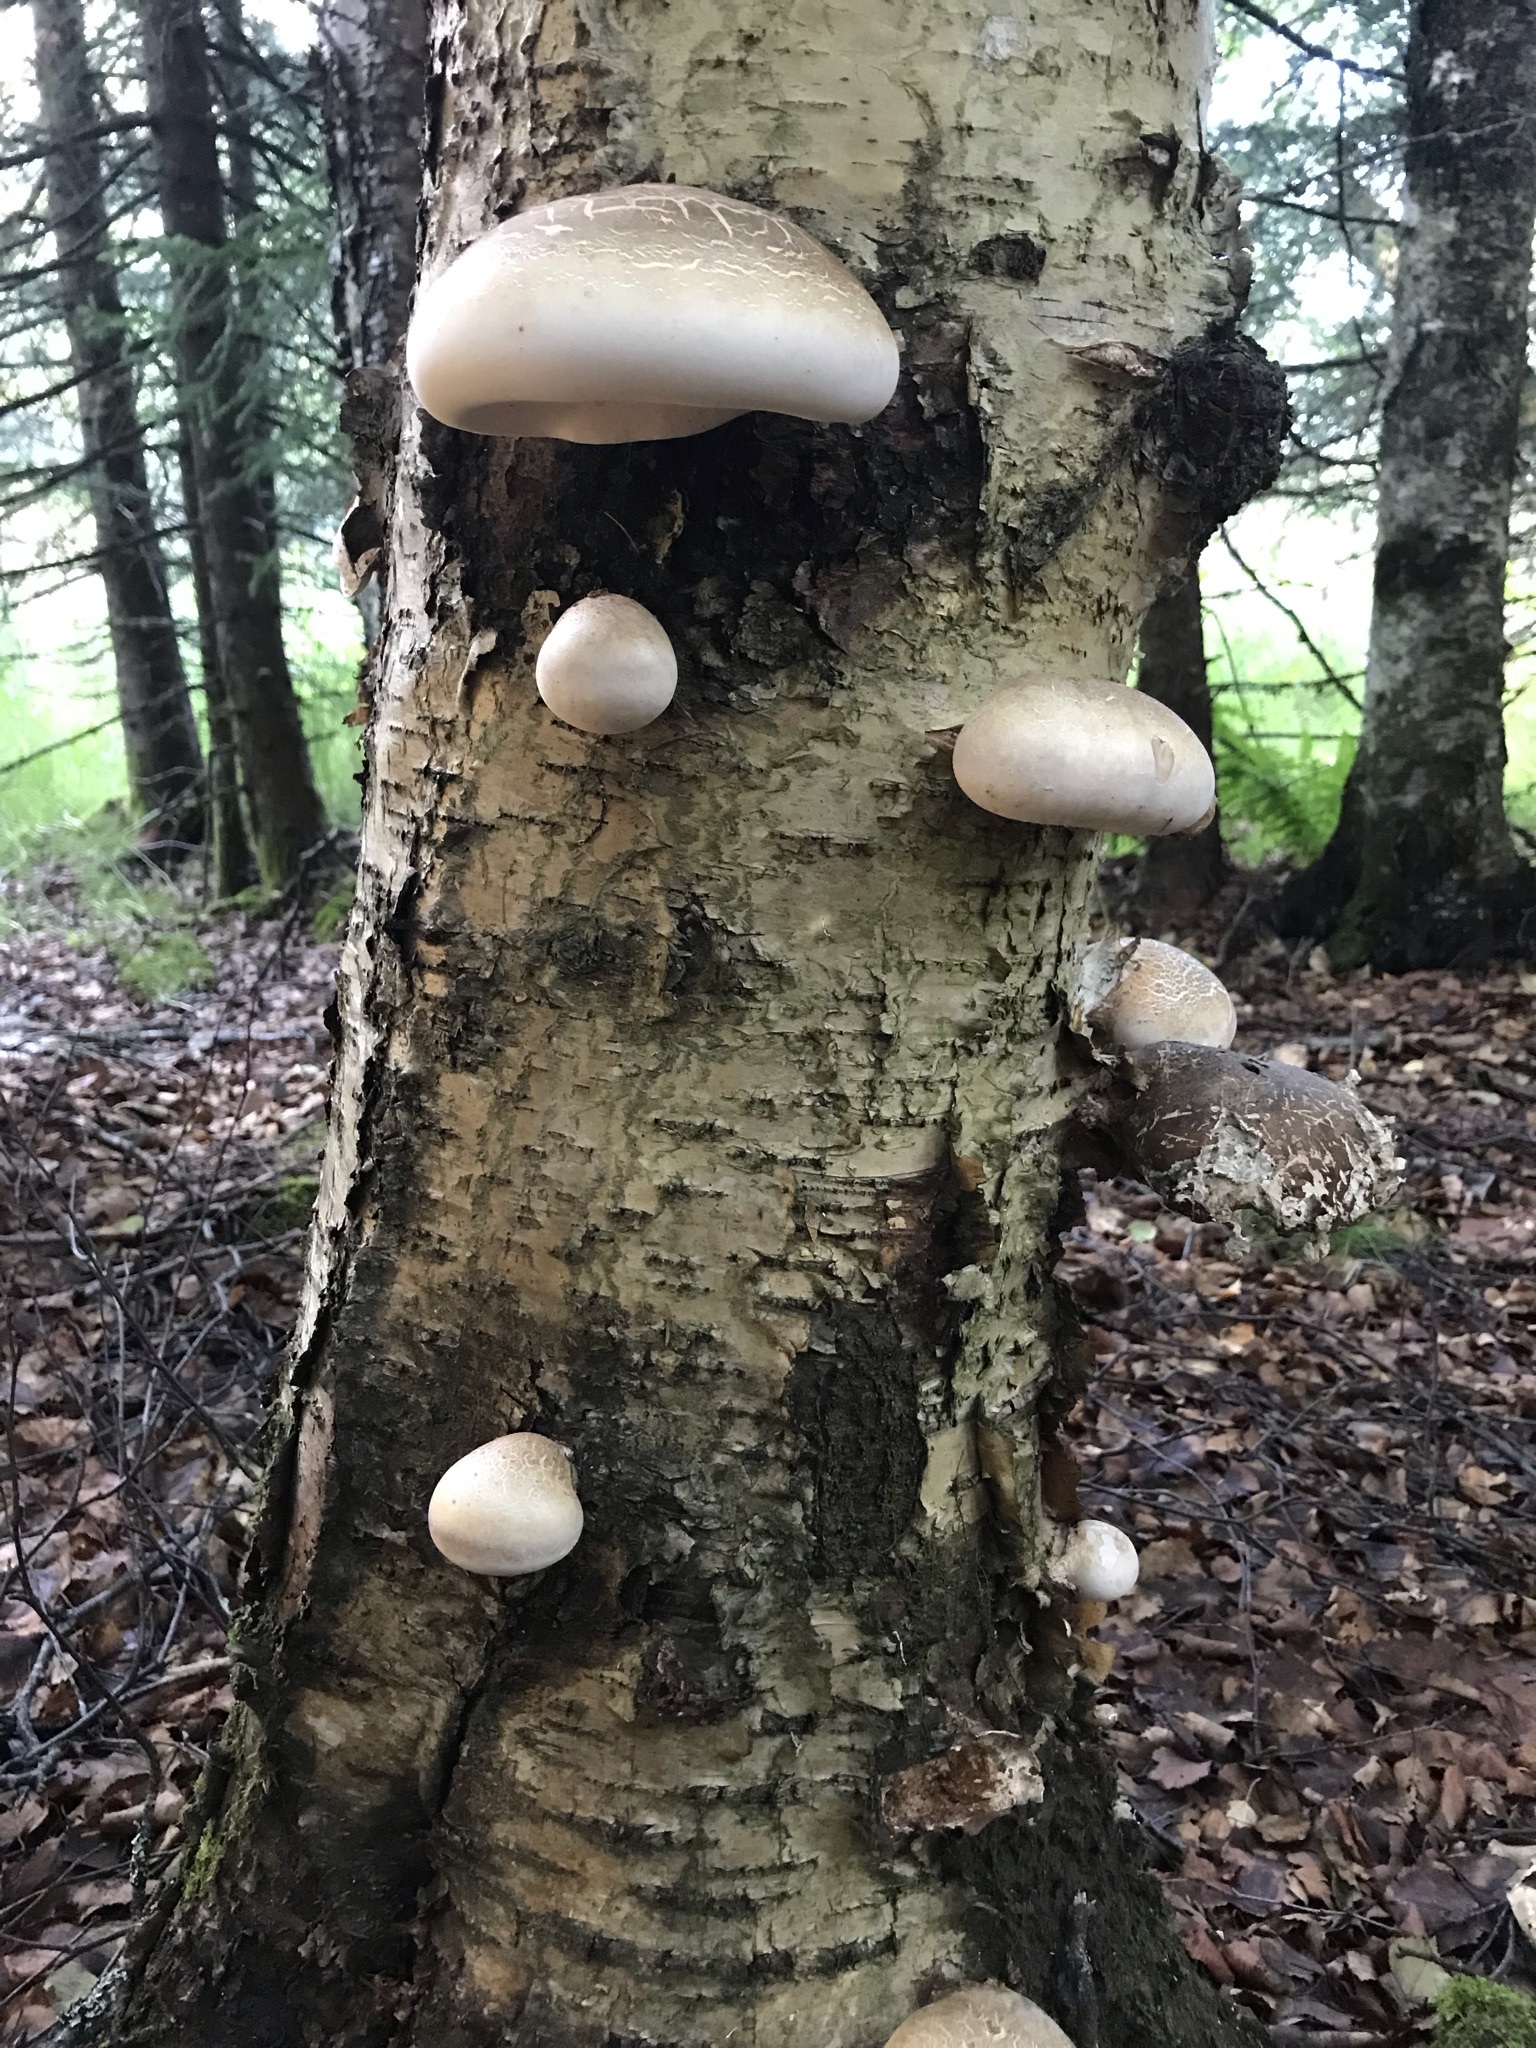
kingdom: Fungi
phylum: Basidiomycota
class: Agaricomycetes
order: Polyporales
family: Fomitopsidaceae
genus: Fomitopsis
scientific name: Fomitopsis betulina
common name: Birch polypore
